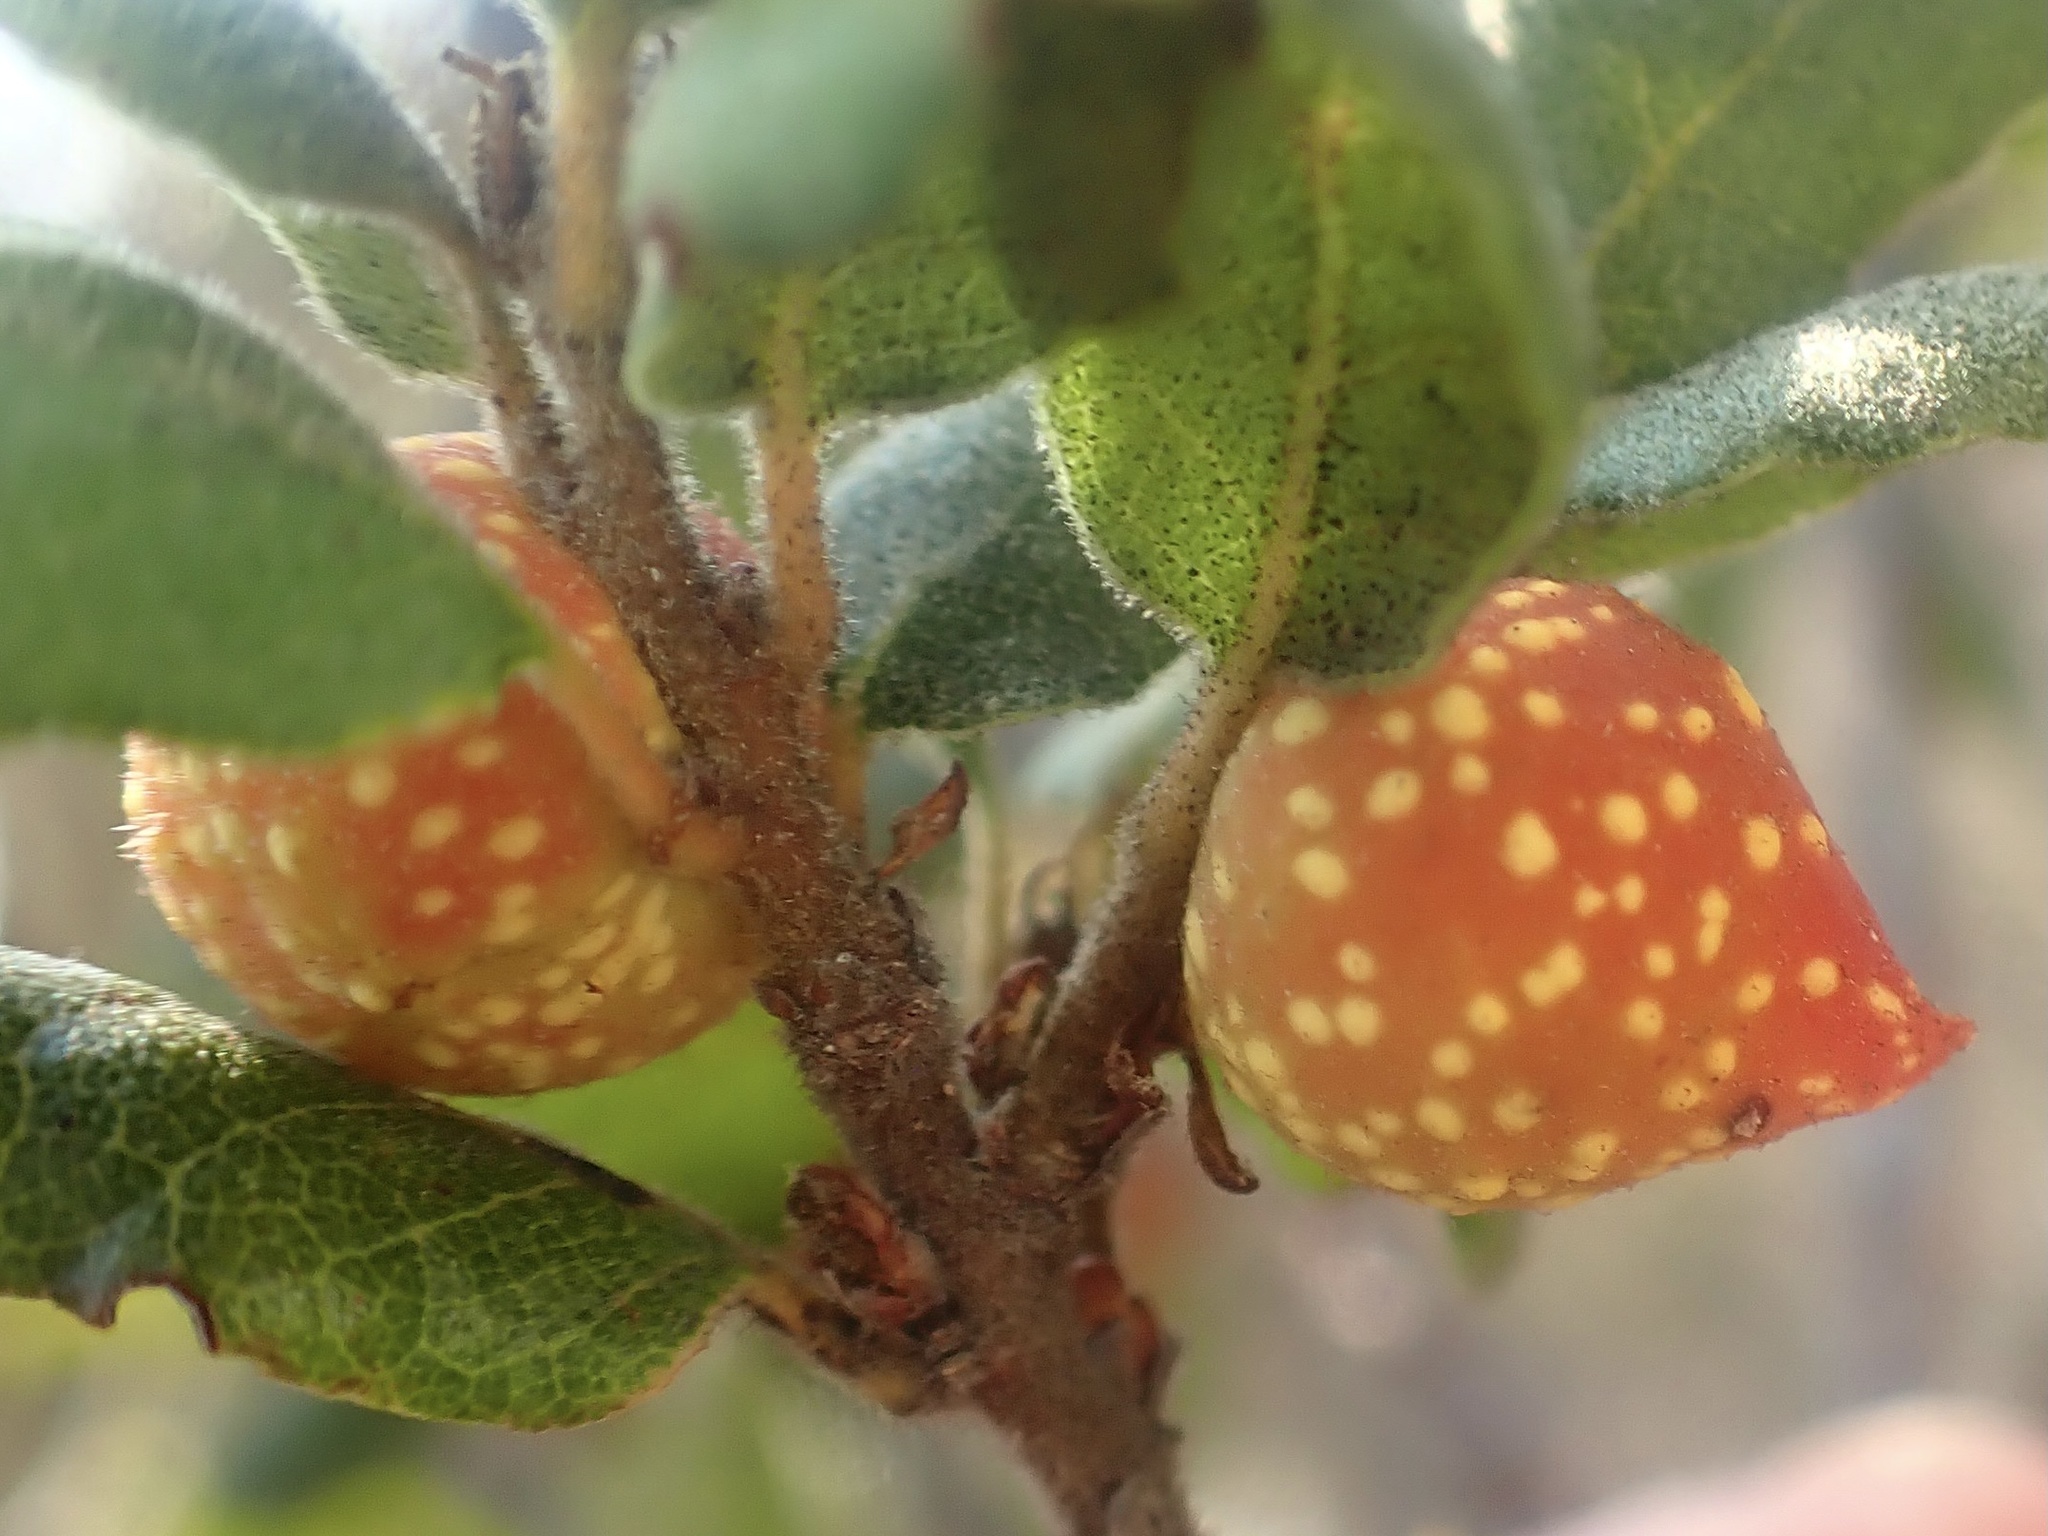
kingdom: Animalia
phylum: Arthropoda
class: Insecta
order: Hymenoptera
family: Cynipidae
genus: Burnettweldia
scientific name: Burnettweldia
